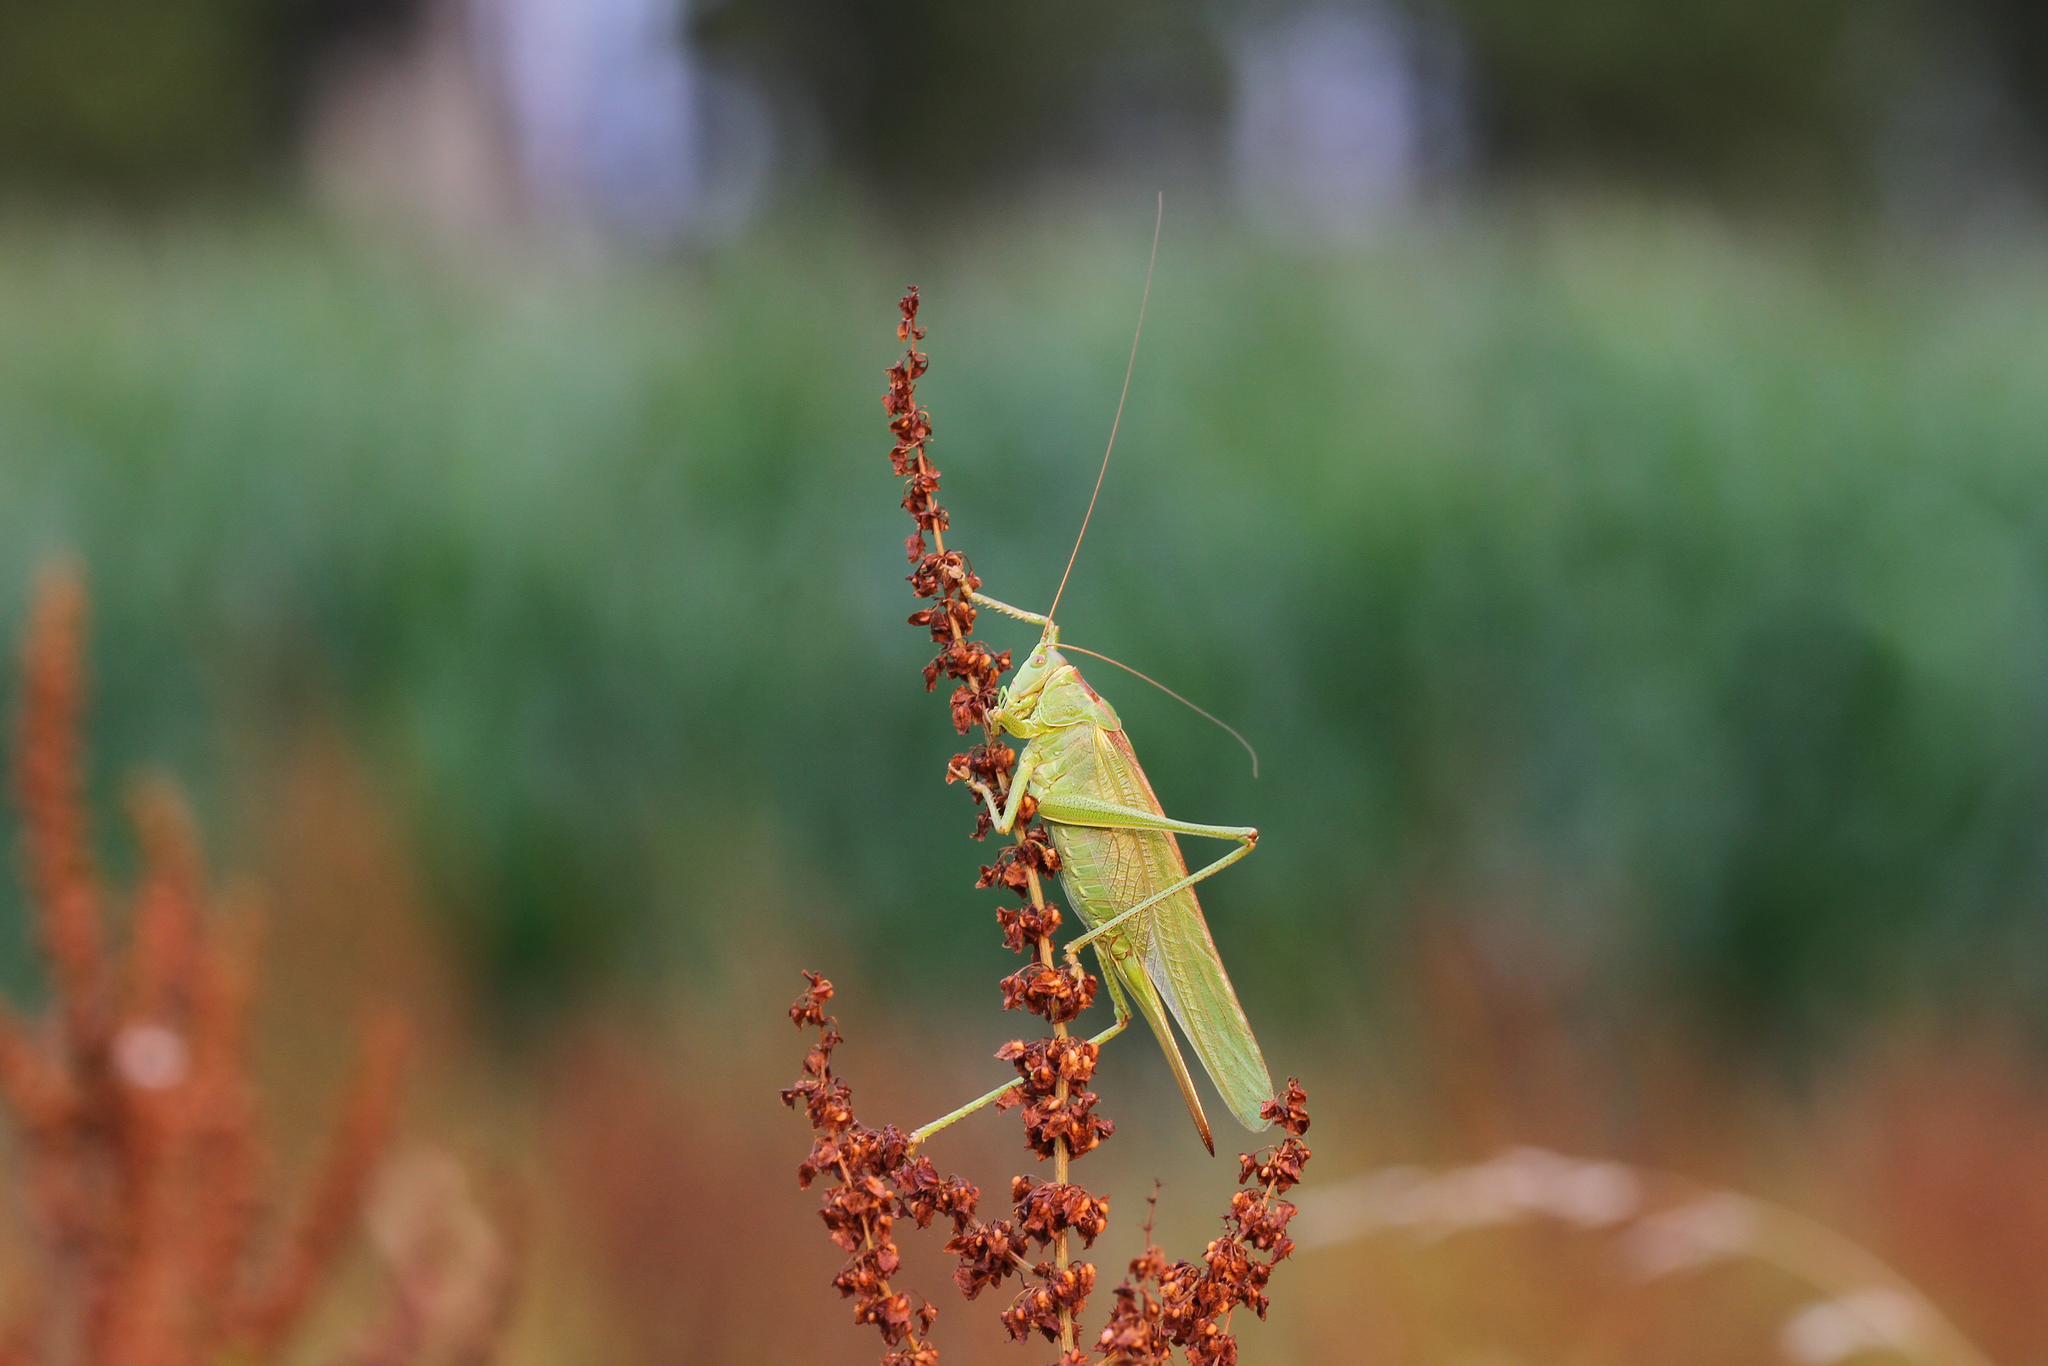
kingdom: Animalia
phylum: Arthropoda
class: Insecta
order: Orthoptera
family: Tettigoniidae
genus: Tettigonia
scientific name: Tettigonia viridissima
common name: Great green bush-cricket
